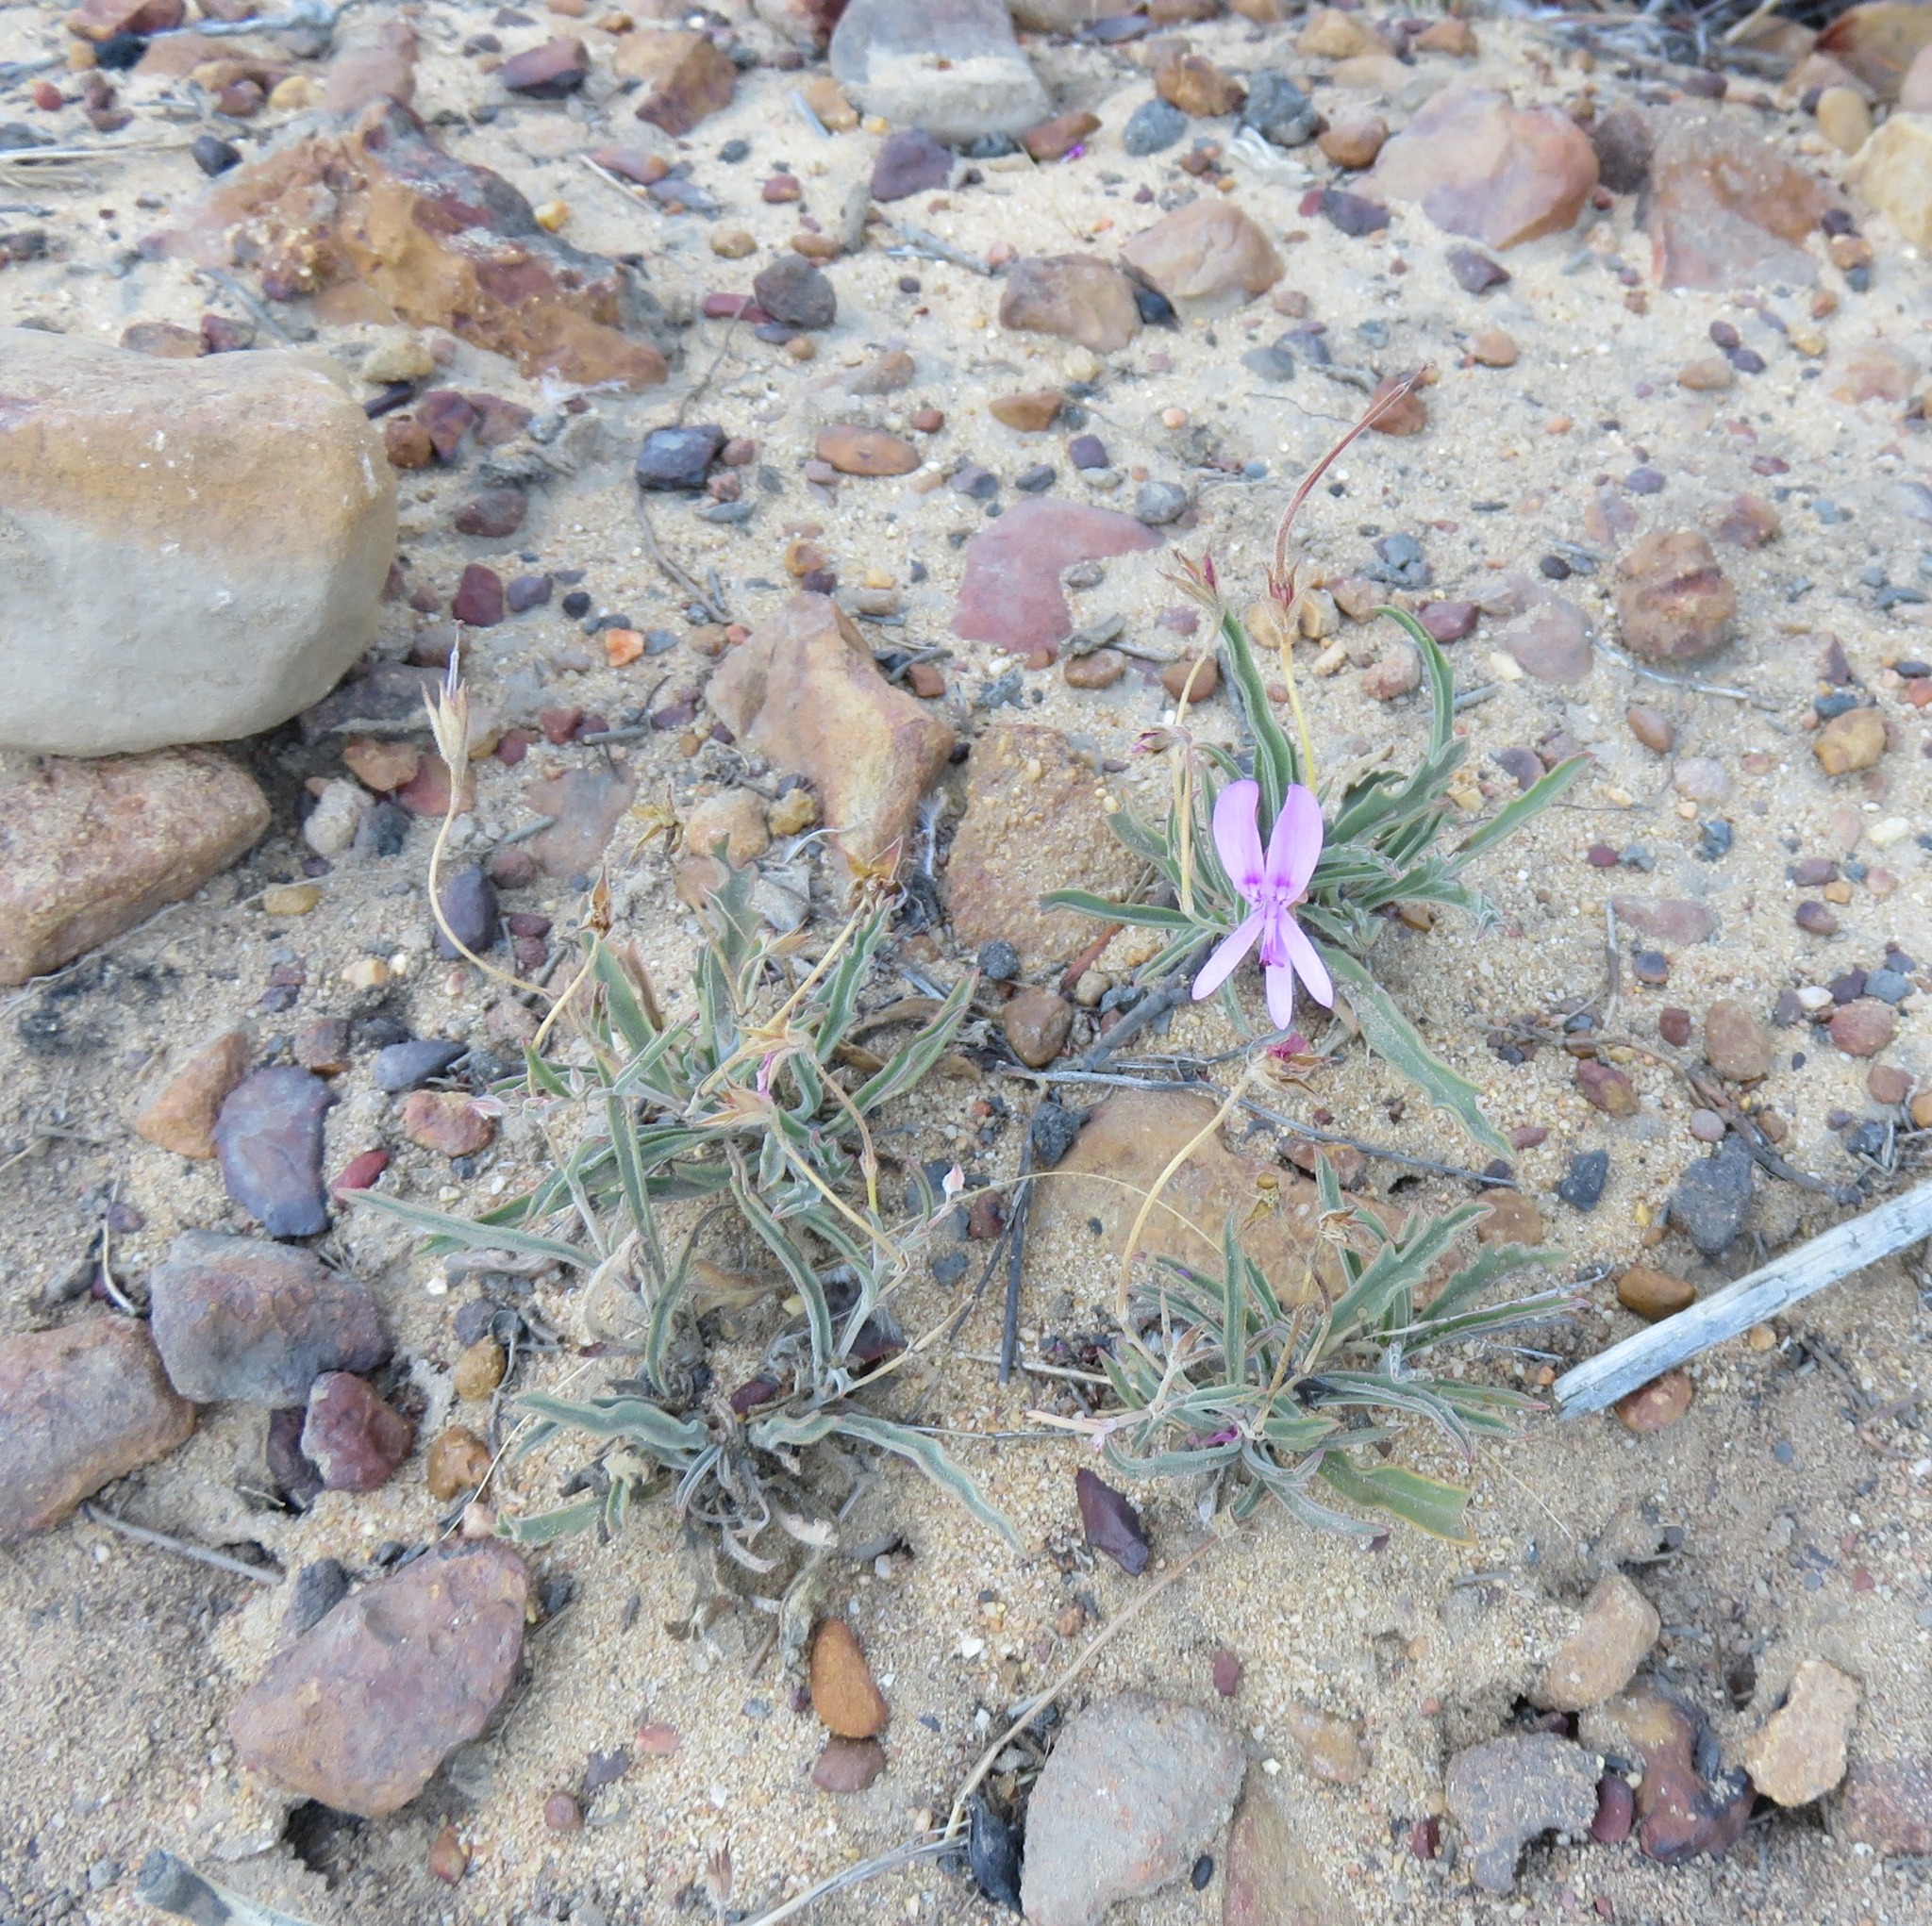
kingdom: Plantae
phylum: Tracheophyta
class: Magnoliopsida
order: Geraniales
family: Geraniaceae
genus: Pelargonium
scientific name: Pelargonium coronopifolium
